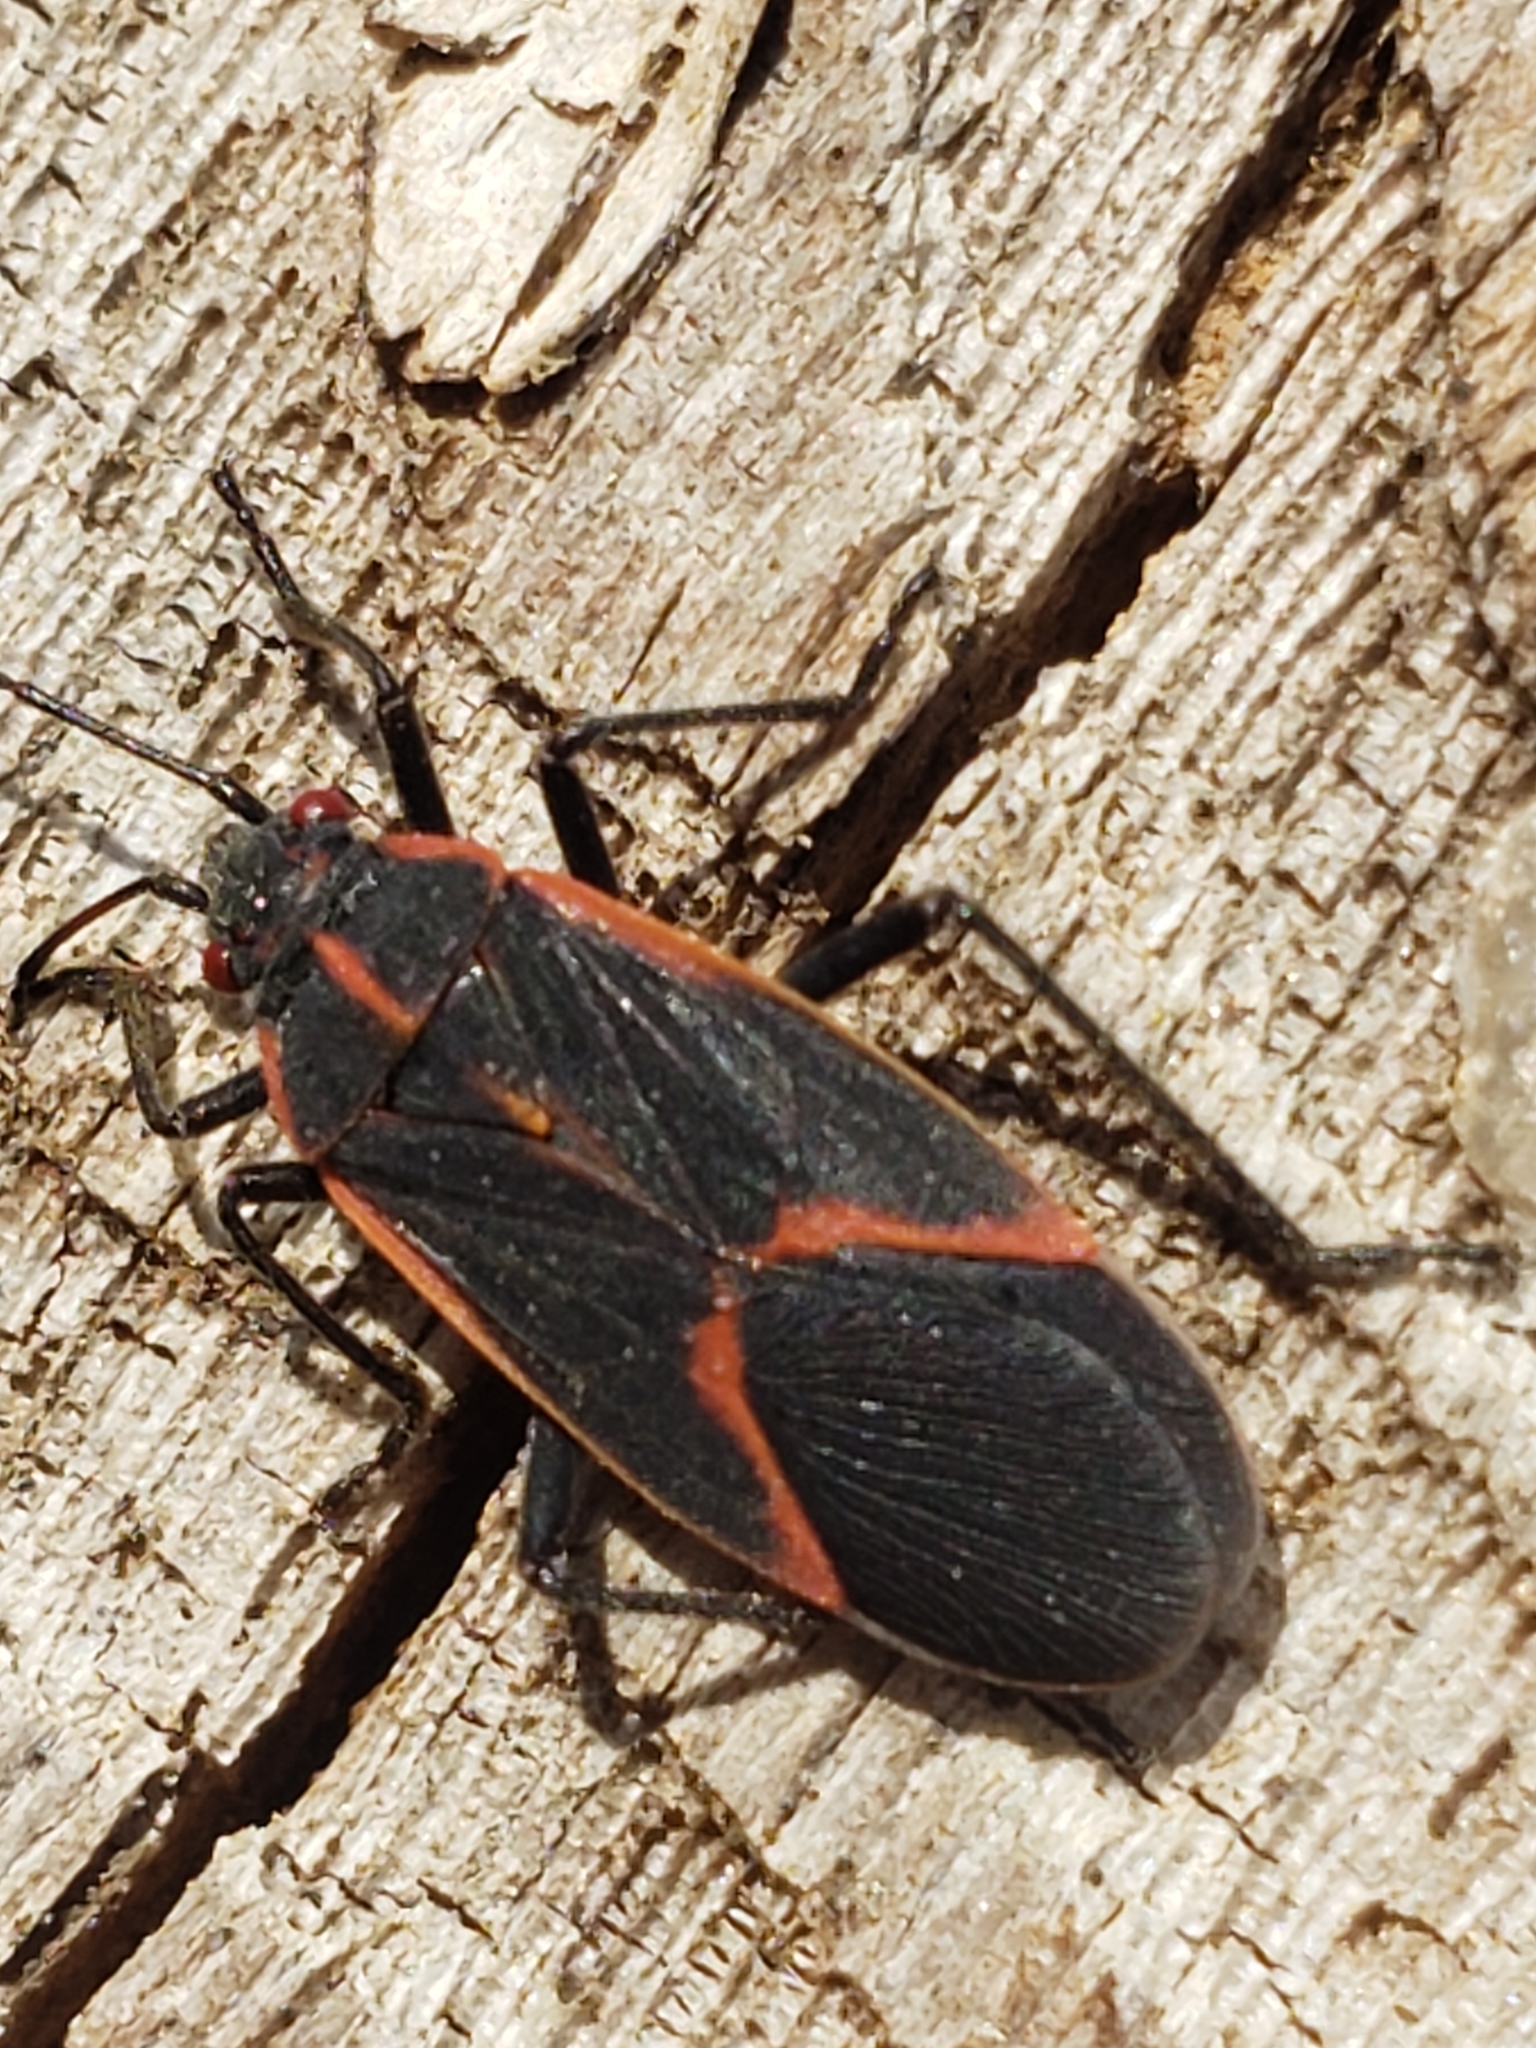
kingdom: Animalia
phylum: Arthropoda
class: Insecta
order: Hemiptera
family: Rhopalidae
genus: Boisea
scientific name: Boisea trivittata
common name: Boxelder bug
